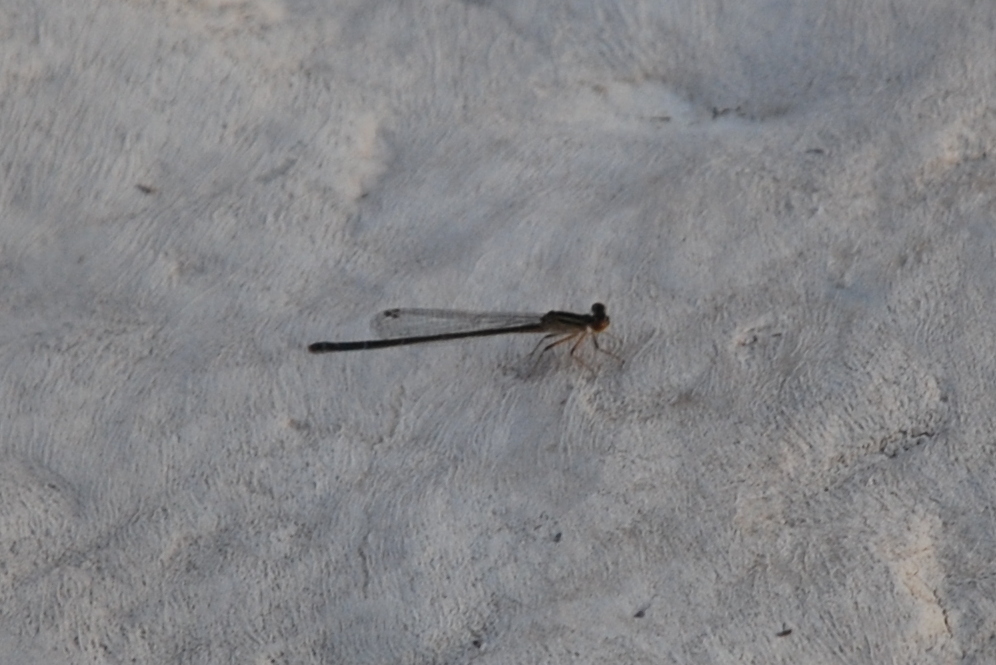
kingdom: Animalia
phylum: Arthropoda
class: Insecta
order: Odonata
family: Platycnemididae
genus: Arabineura
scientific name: Arabineura khalidi
